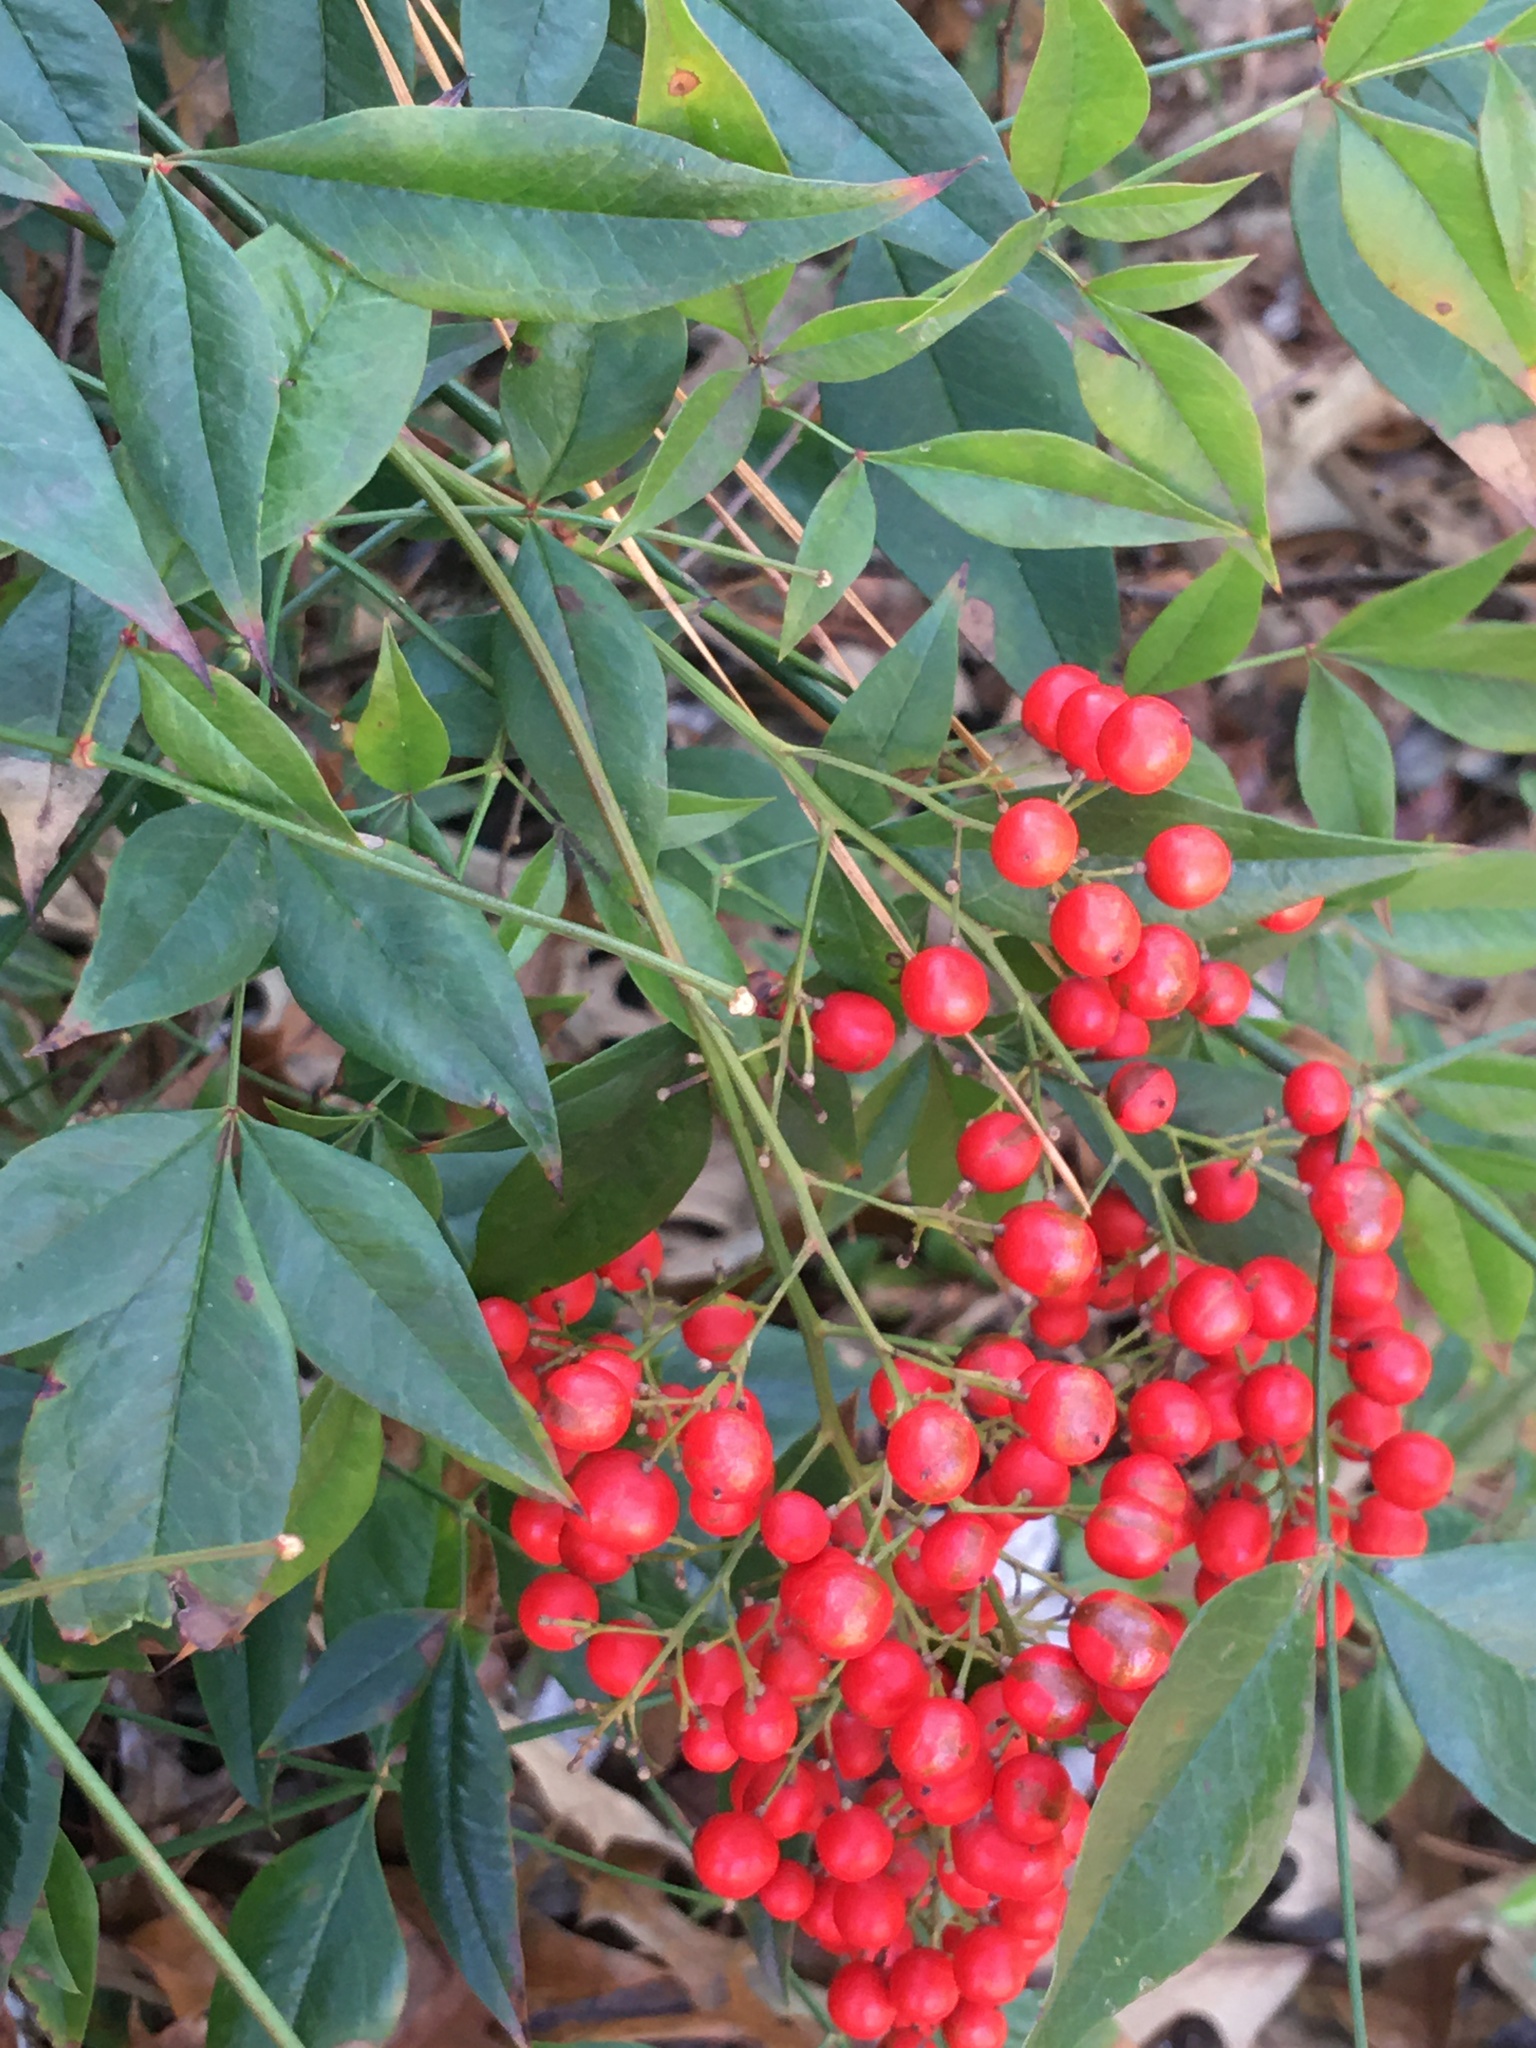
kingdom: Plantae
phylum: Tracheophyta
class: Magnoliopsida
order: Ranunculales
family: Berberidaceae
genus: Nandina
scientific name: Nandina domestica
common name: Sacred bamboo
